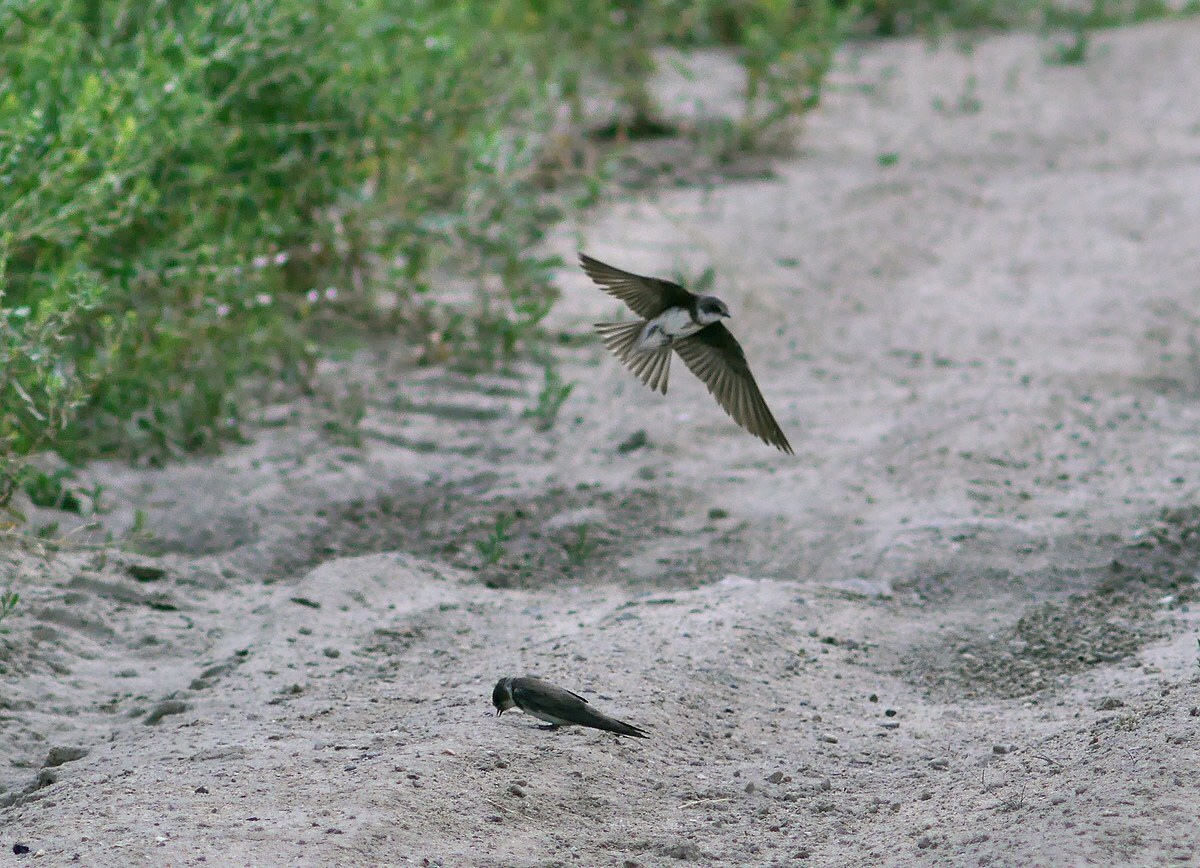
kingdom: Animalia
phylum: Chordata
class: Aves
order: Passeriformes
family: Hirundinidae
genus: Riparia
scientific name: Riparia riparia
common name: Sand martin
